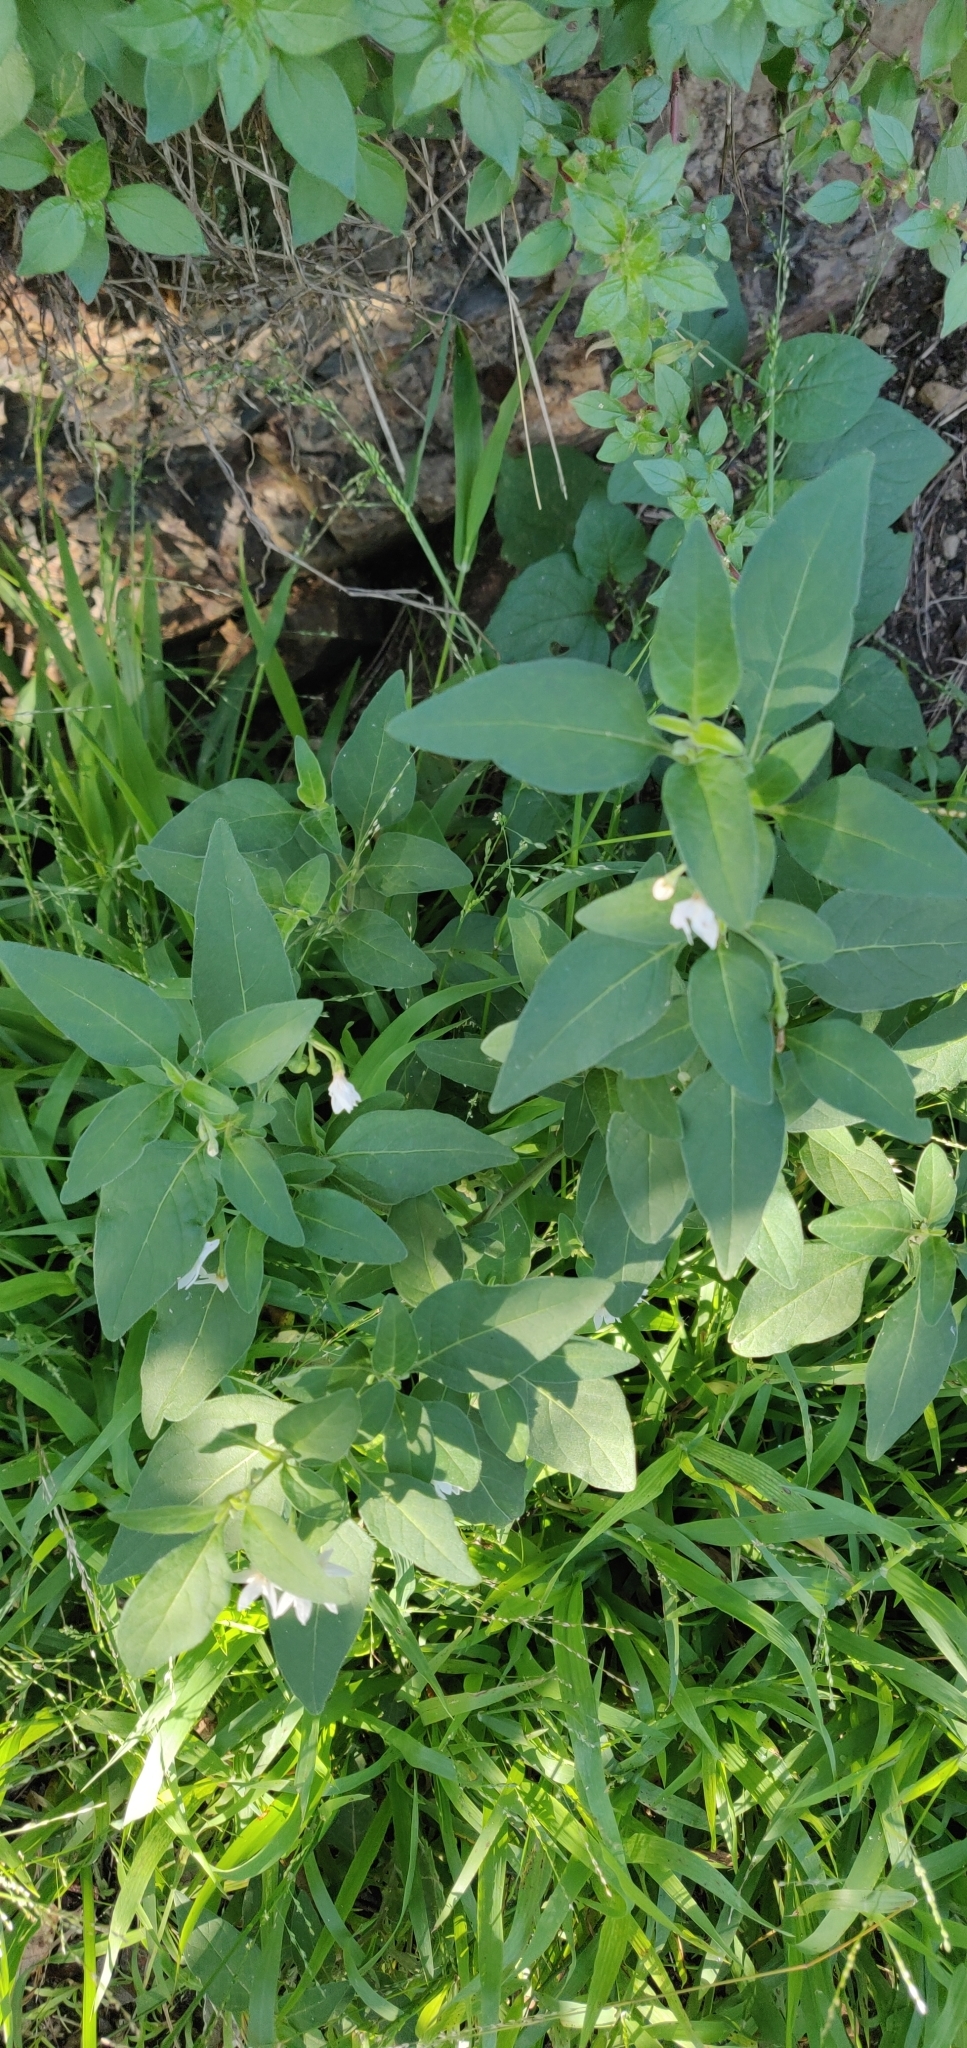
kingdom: Plantae
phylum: Tracheophyta
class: Magnoliopsida
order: Solanales
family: Solanaceae
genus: Solanum
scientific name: Solanum chenopodioides
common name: Tall nightshade
